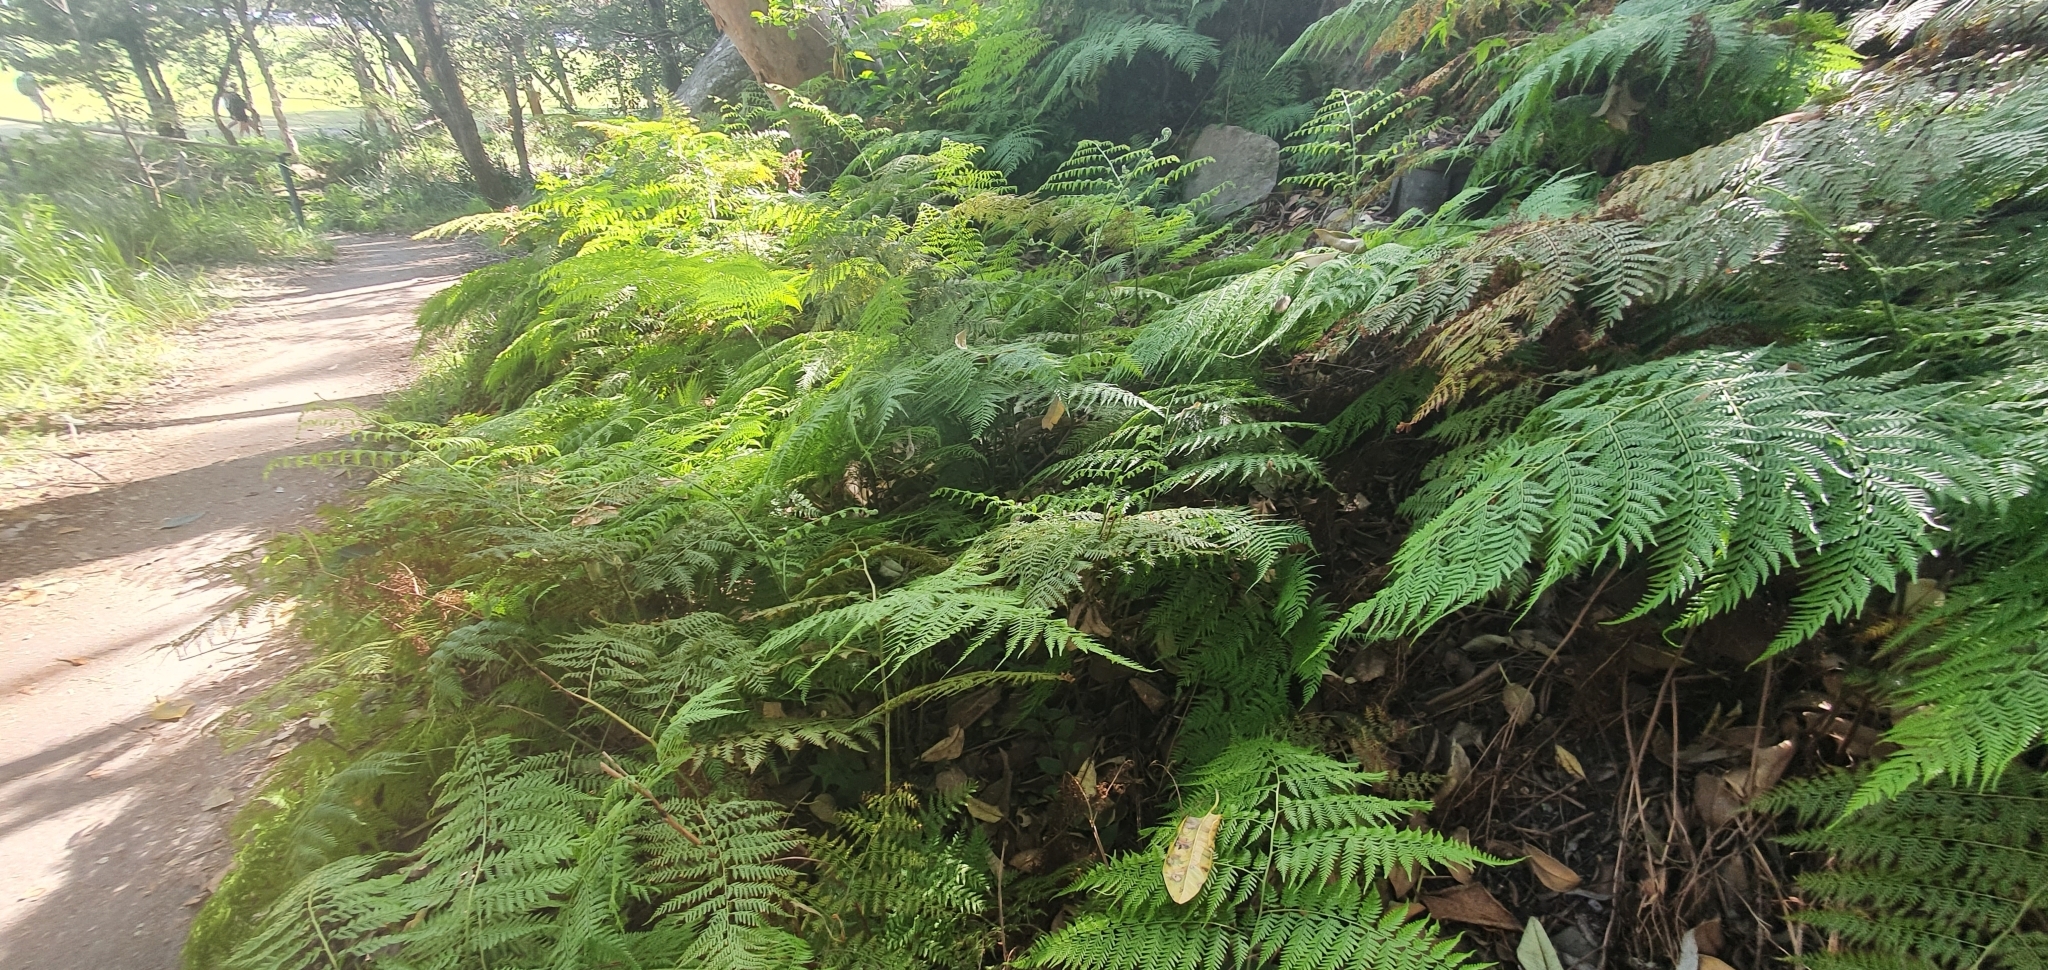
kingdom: Plantae
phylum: Tracheophyta
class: Polypodiopsida
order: Cyatheales
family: Dicksoniaceae
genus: Calochlaena
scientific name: Calochlaena dubia
